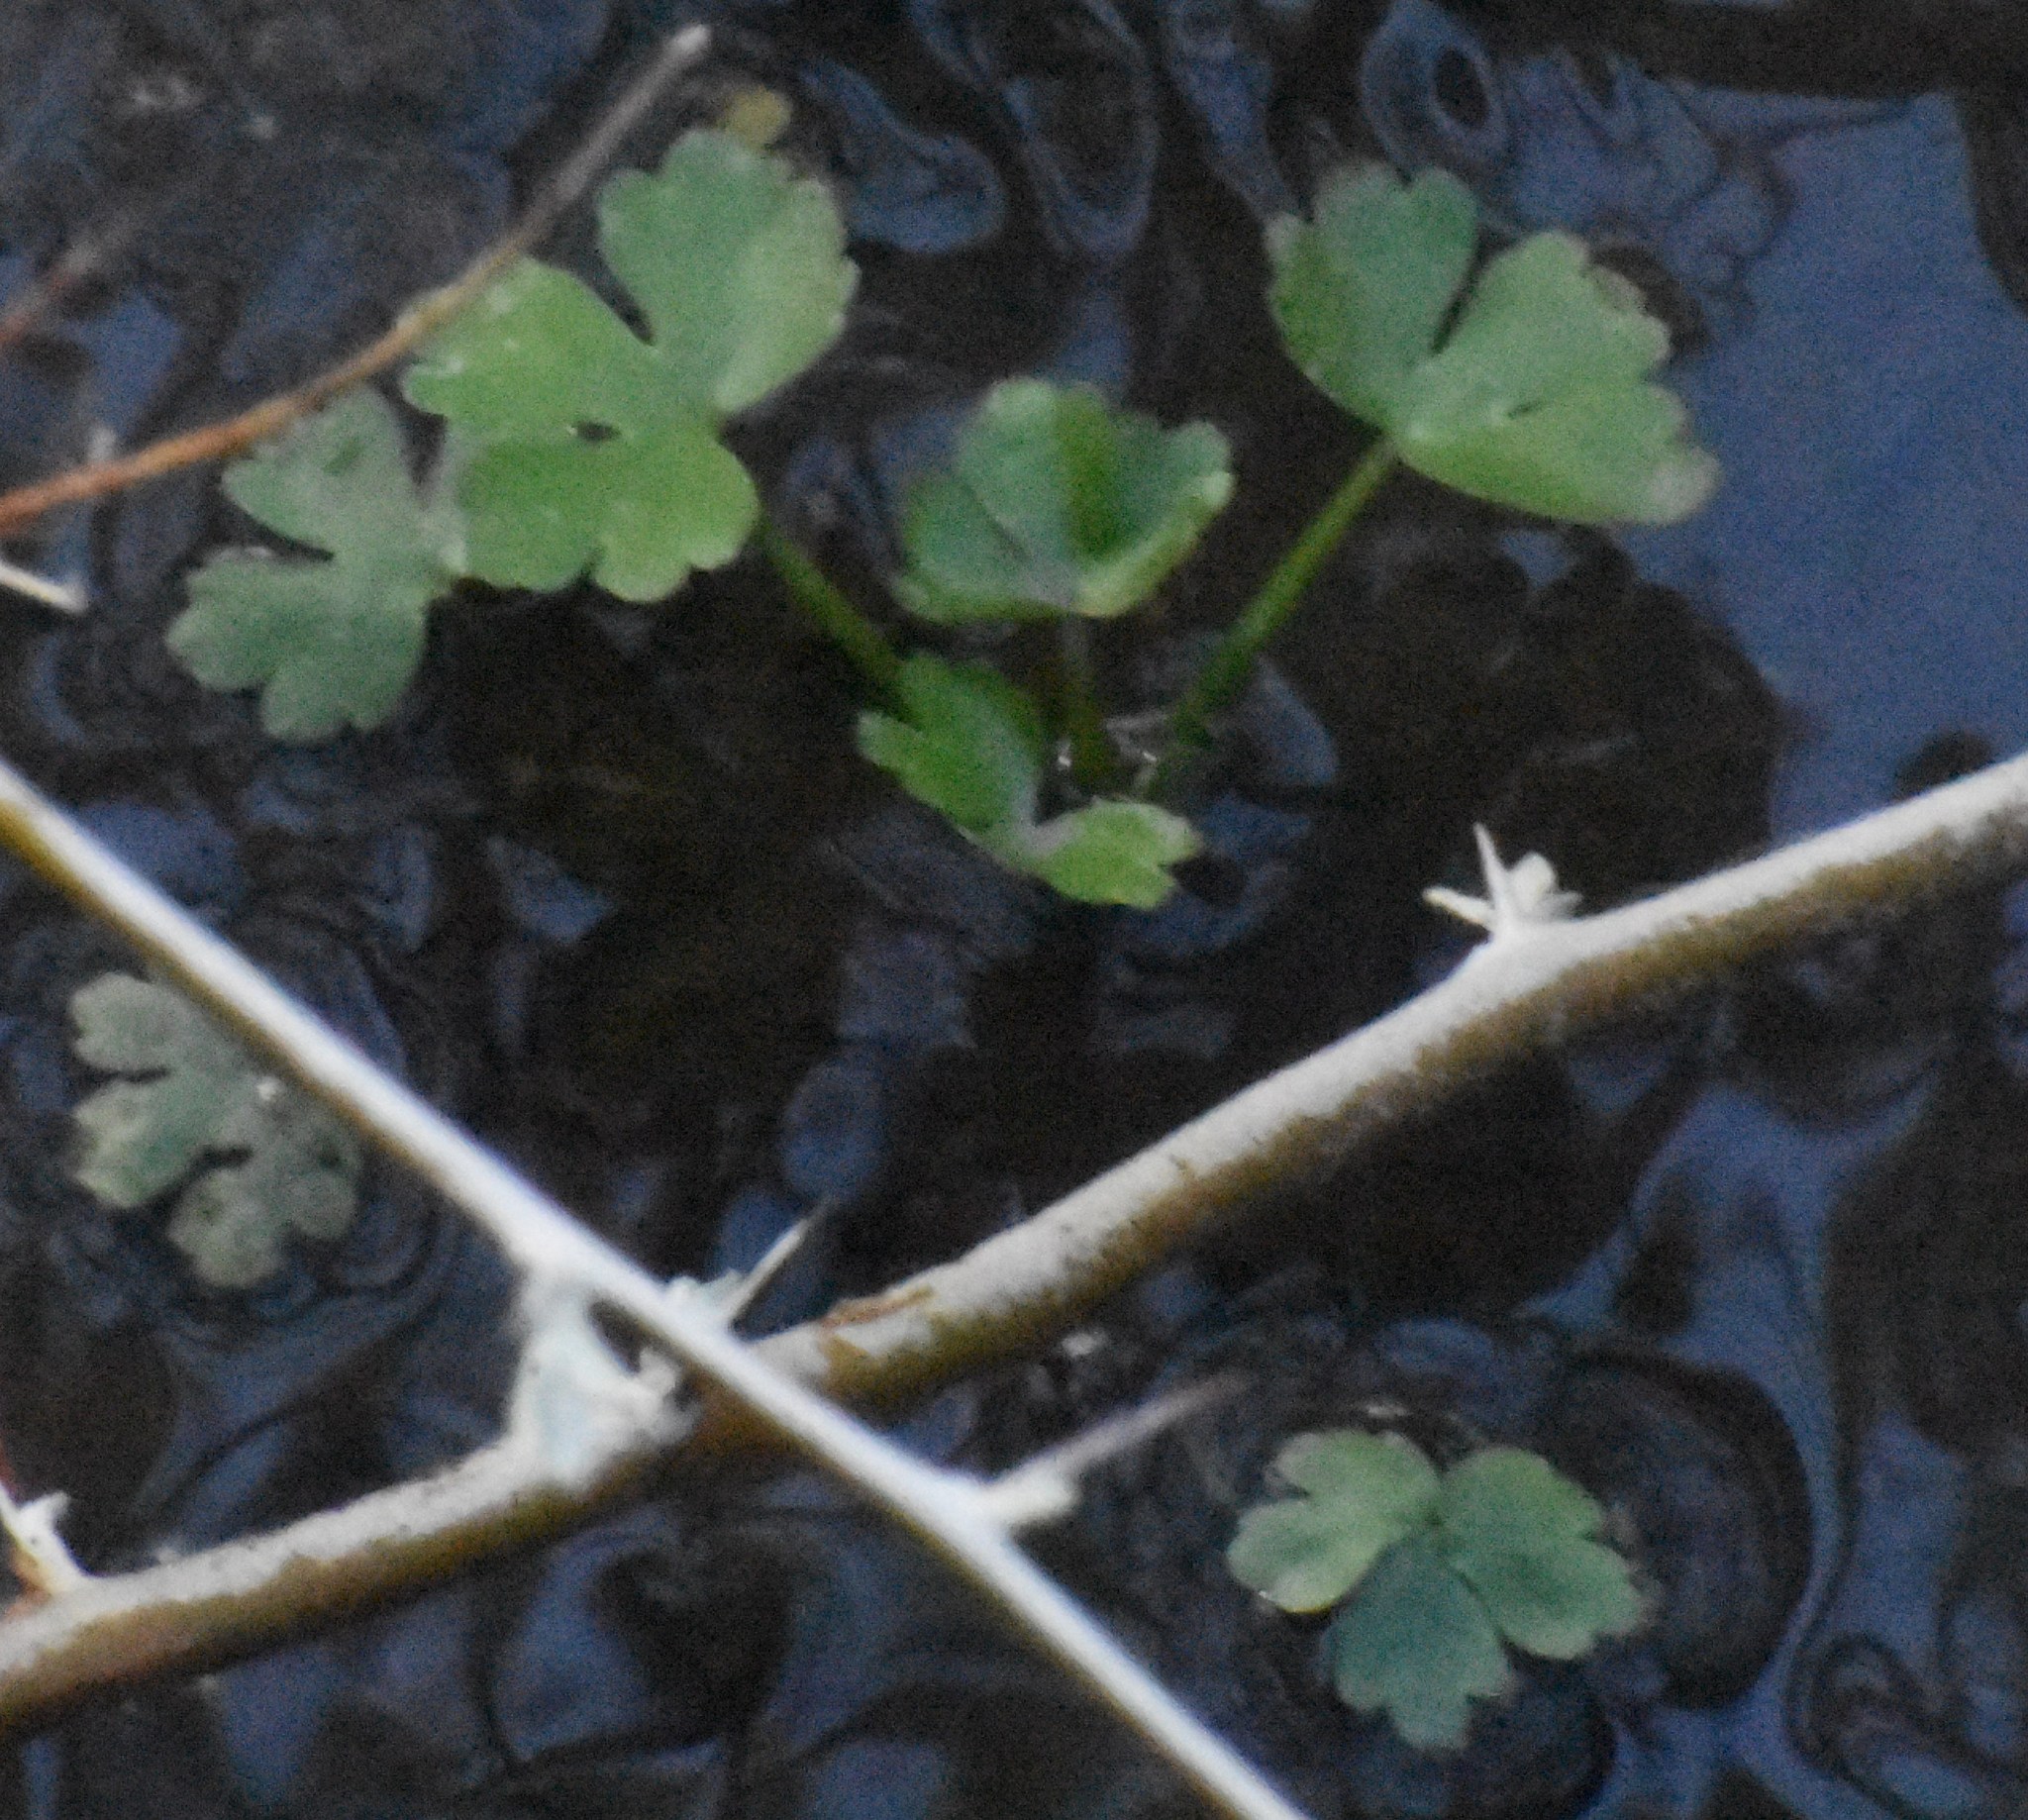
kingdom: Plantae
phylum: Tracheophyta
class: Magnoliopsida
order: Ranunculales
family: Ranunculaceae
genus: Ranunculus
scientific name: Ranunculus sceleratus
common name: Celery-leaved buttercup
